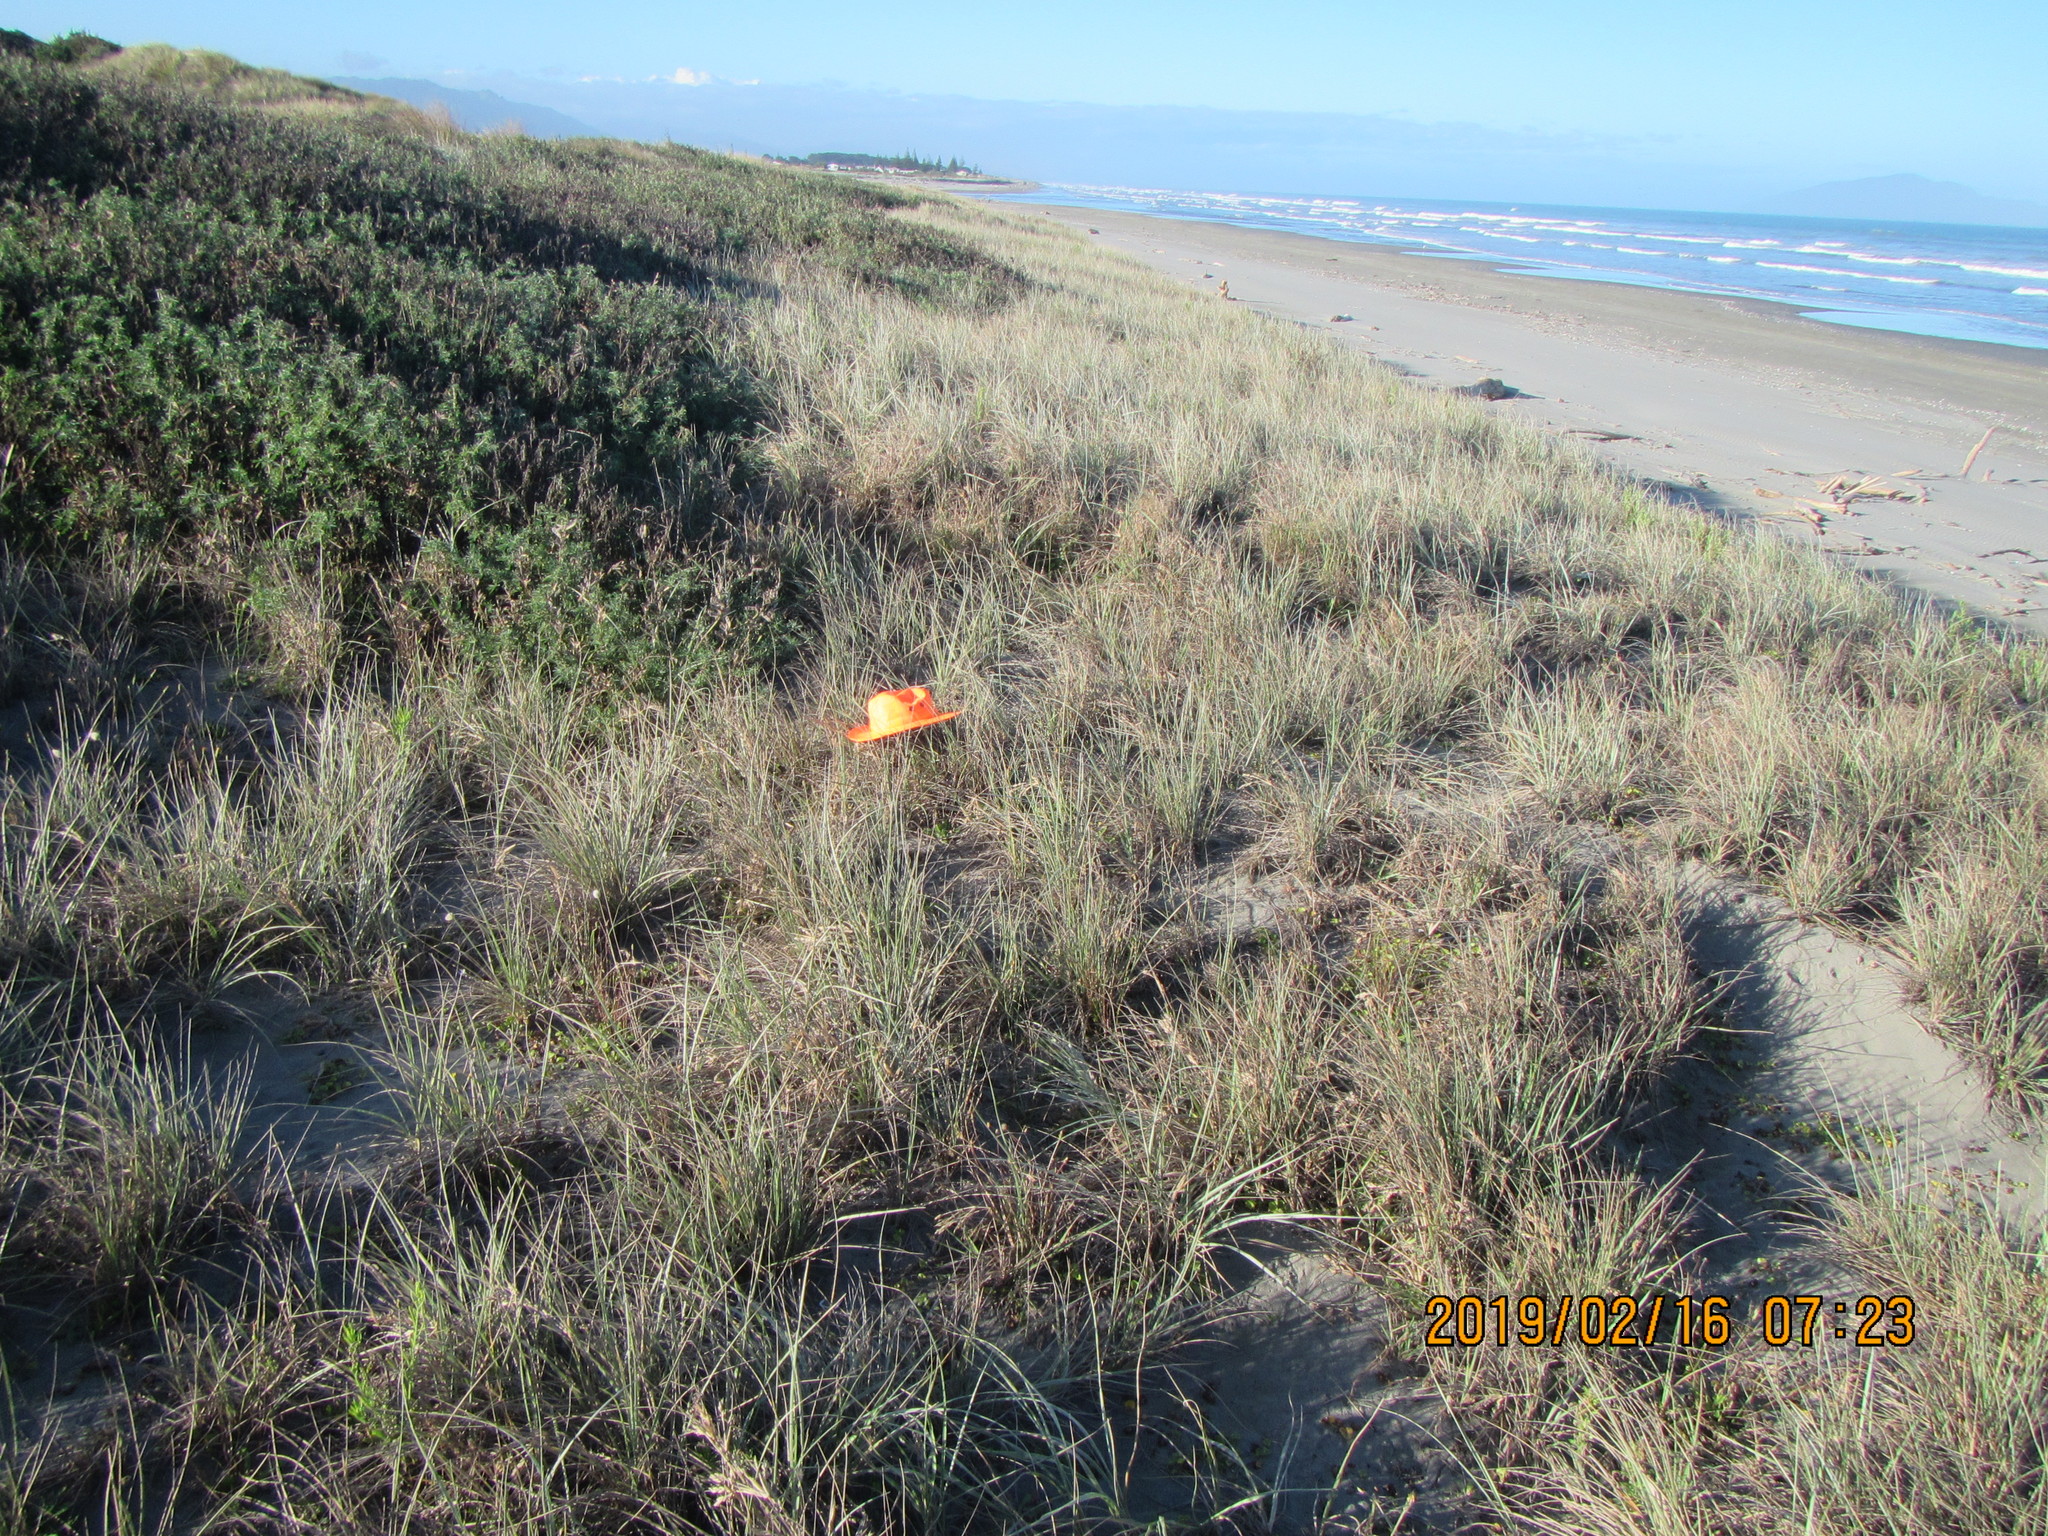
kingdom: Animalia
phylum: Arthropoda
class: Arachnida
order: Araneae
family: Theridiidae
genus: Latrodectus
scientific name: Latrodectus katipo
